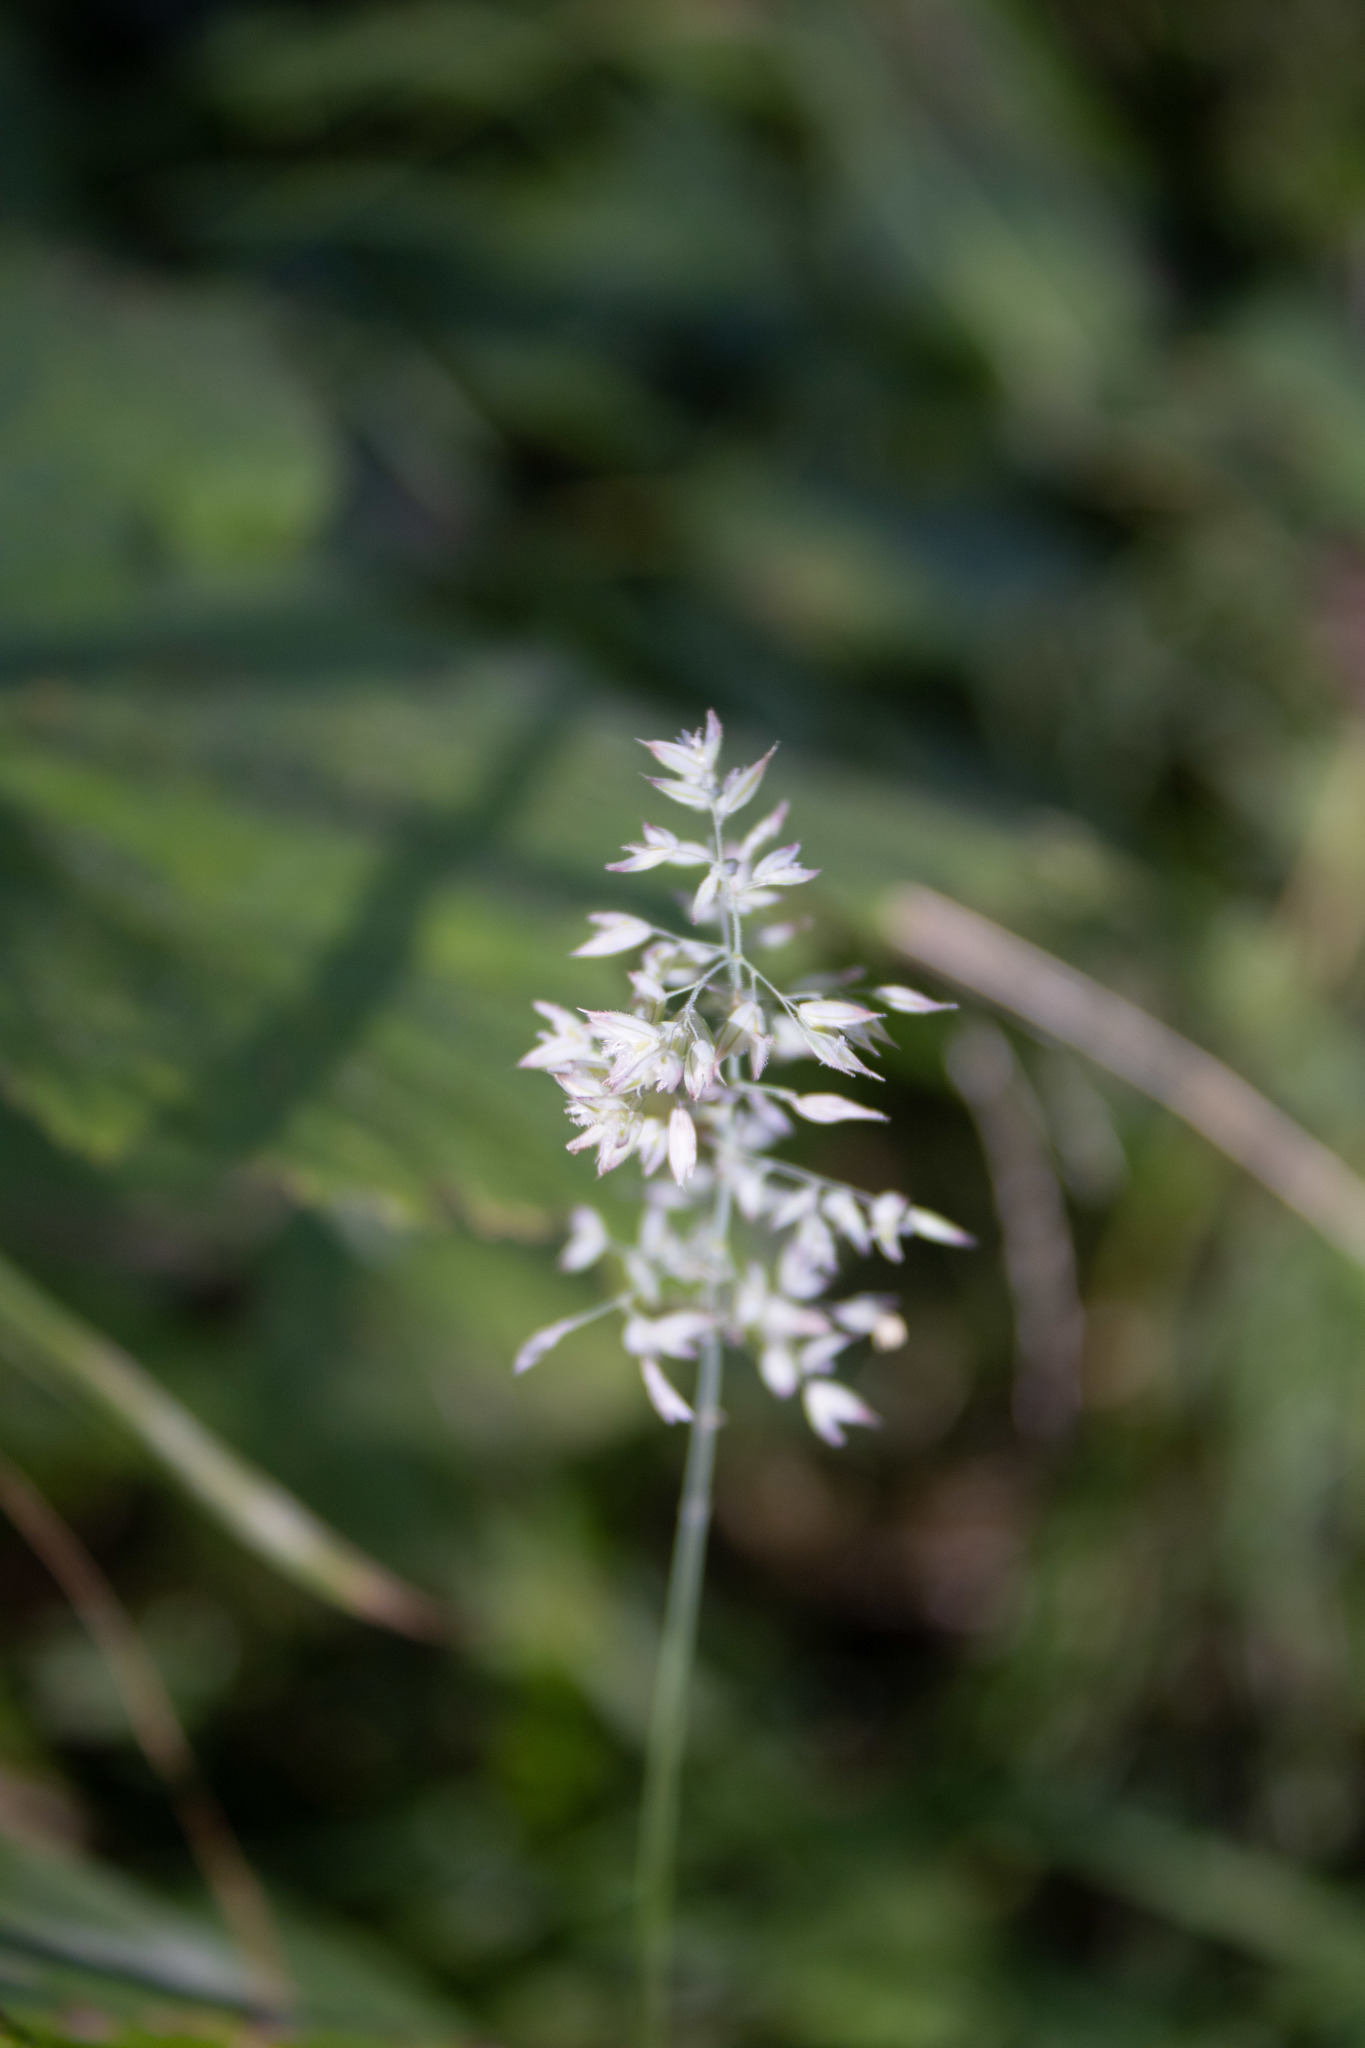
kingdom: Plantae
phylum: Tracheophyta
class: Liliopsida
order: Poales
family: Poaceae
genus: Holcus
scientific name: Holcus lanatus
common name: Yorkshire-fog
